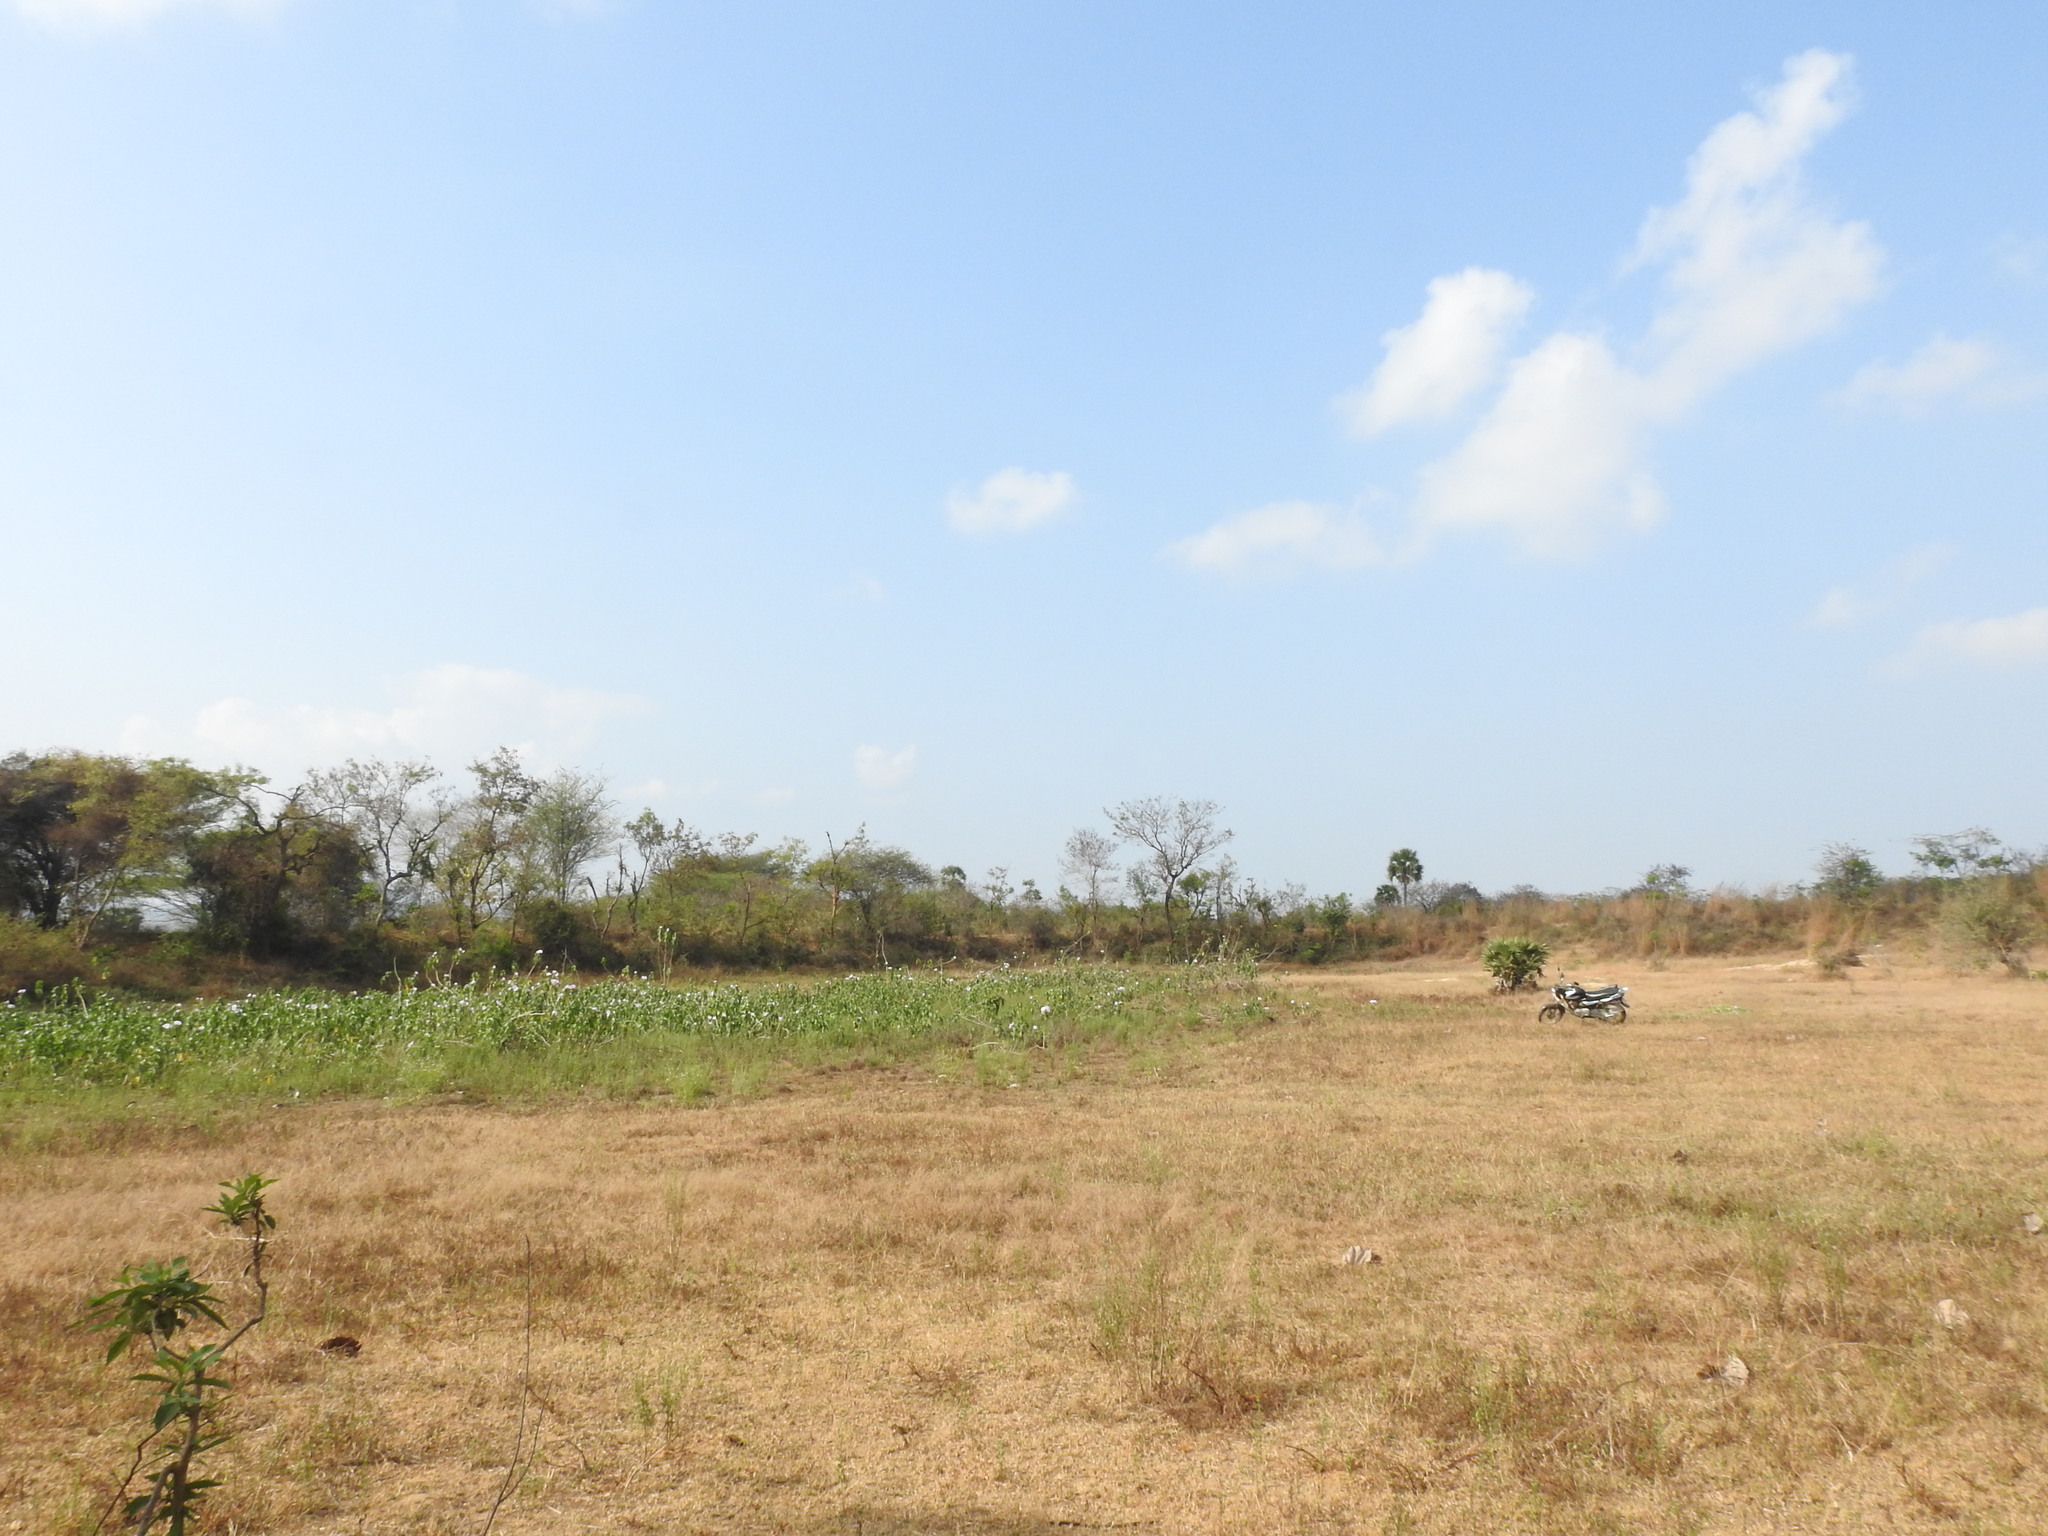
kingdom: Plantae
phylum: Tracheophyta
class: Magnoliopsida
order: Solanales
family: Convolvulaceae
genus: Ipomoea
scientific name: Ipomoea carnea
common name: Morning-glory
